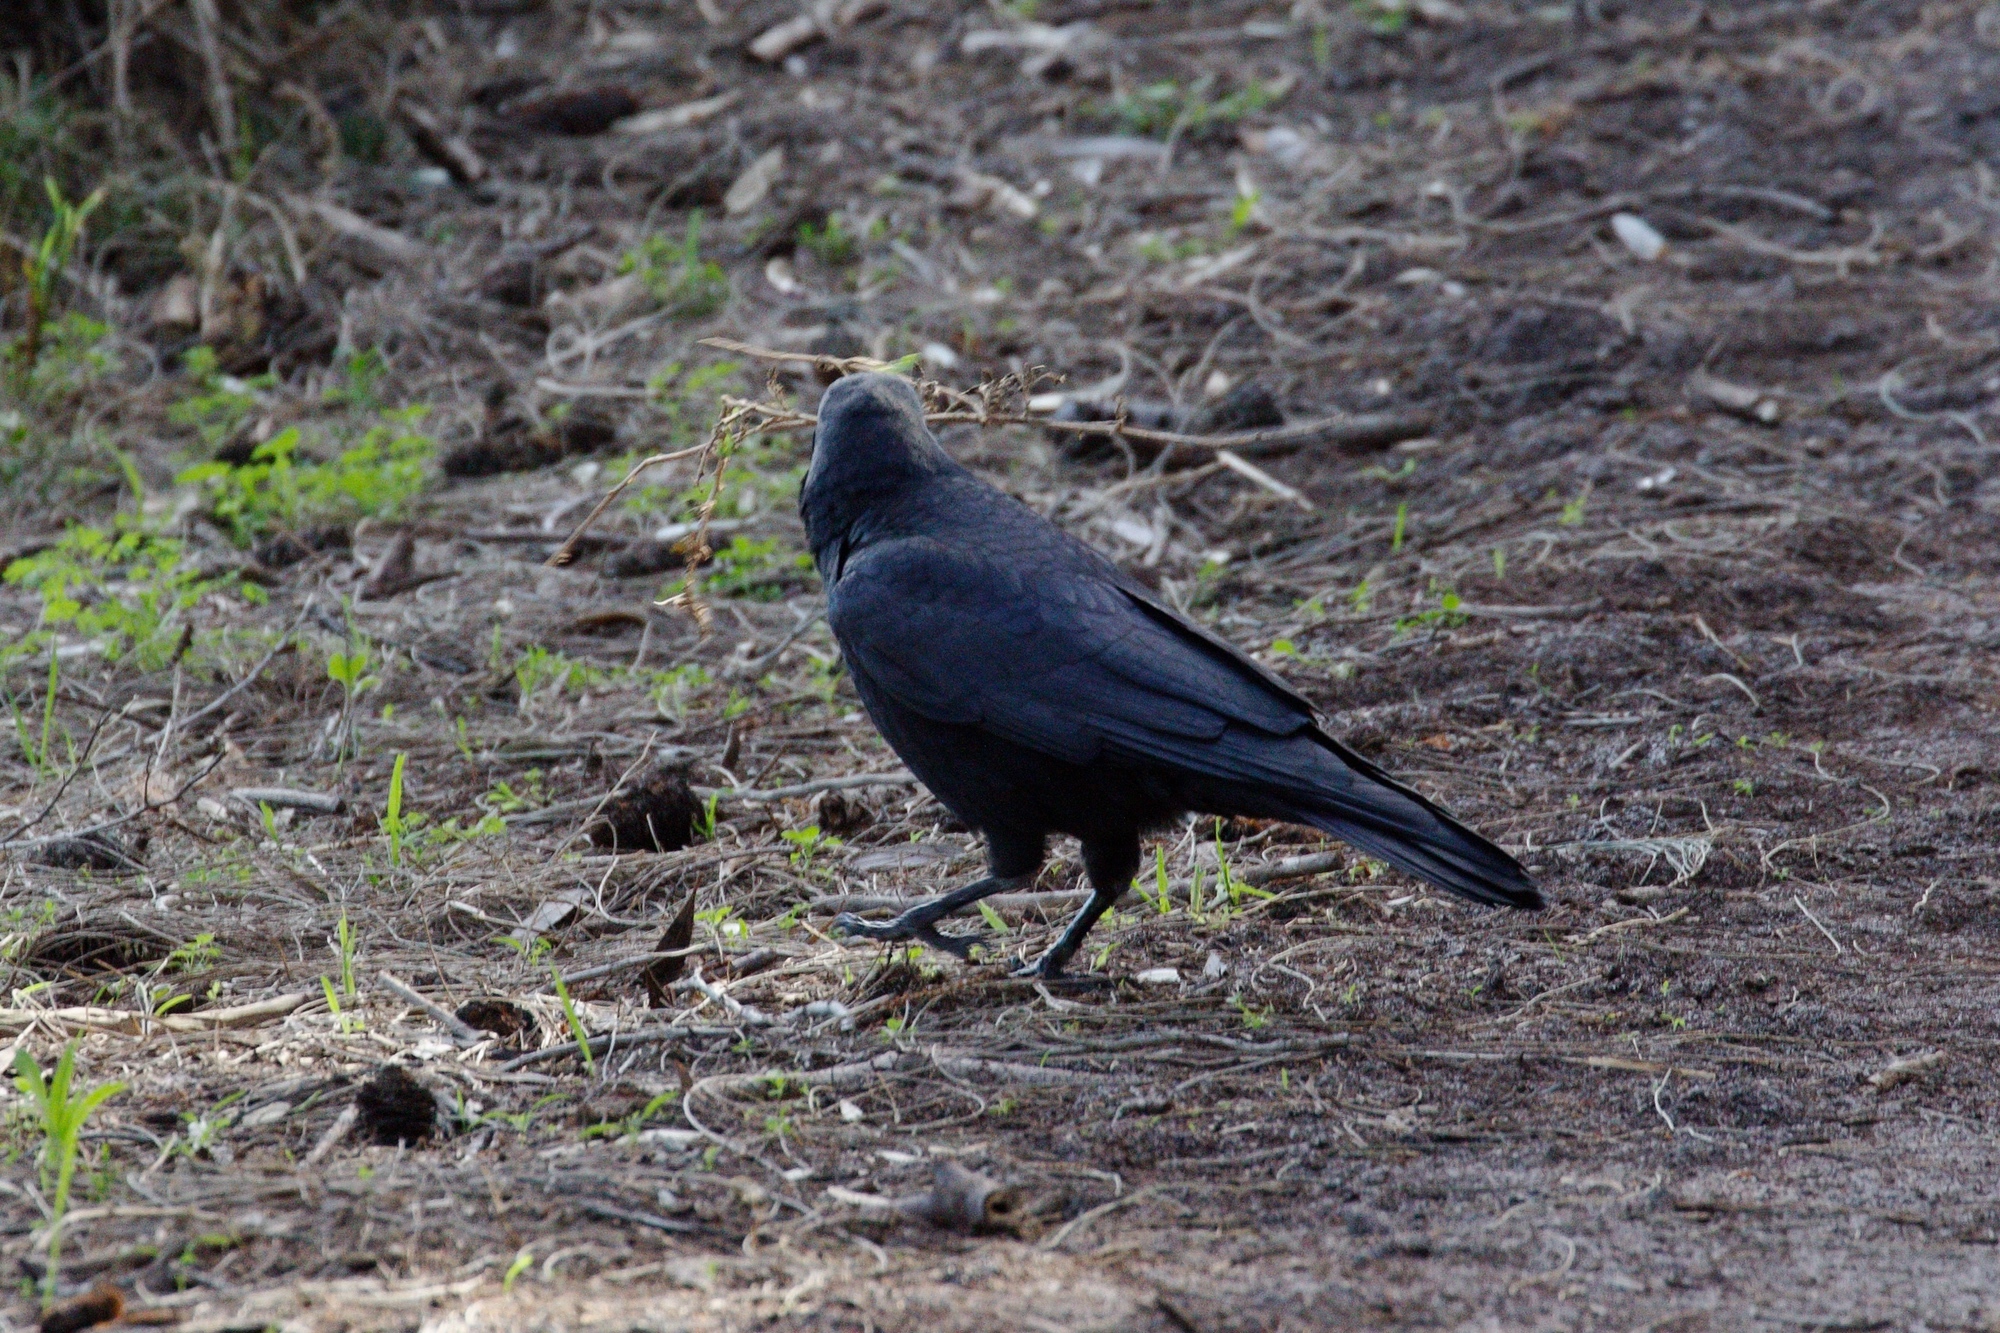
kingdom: Animalia
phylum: Chordata
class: Aves
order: Passeriformes
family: Corvidae
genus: Corvus
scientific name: Corvus mellori
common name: Little raven
